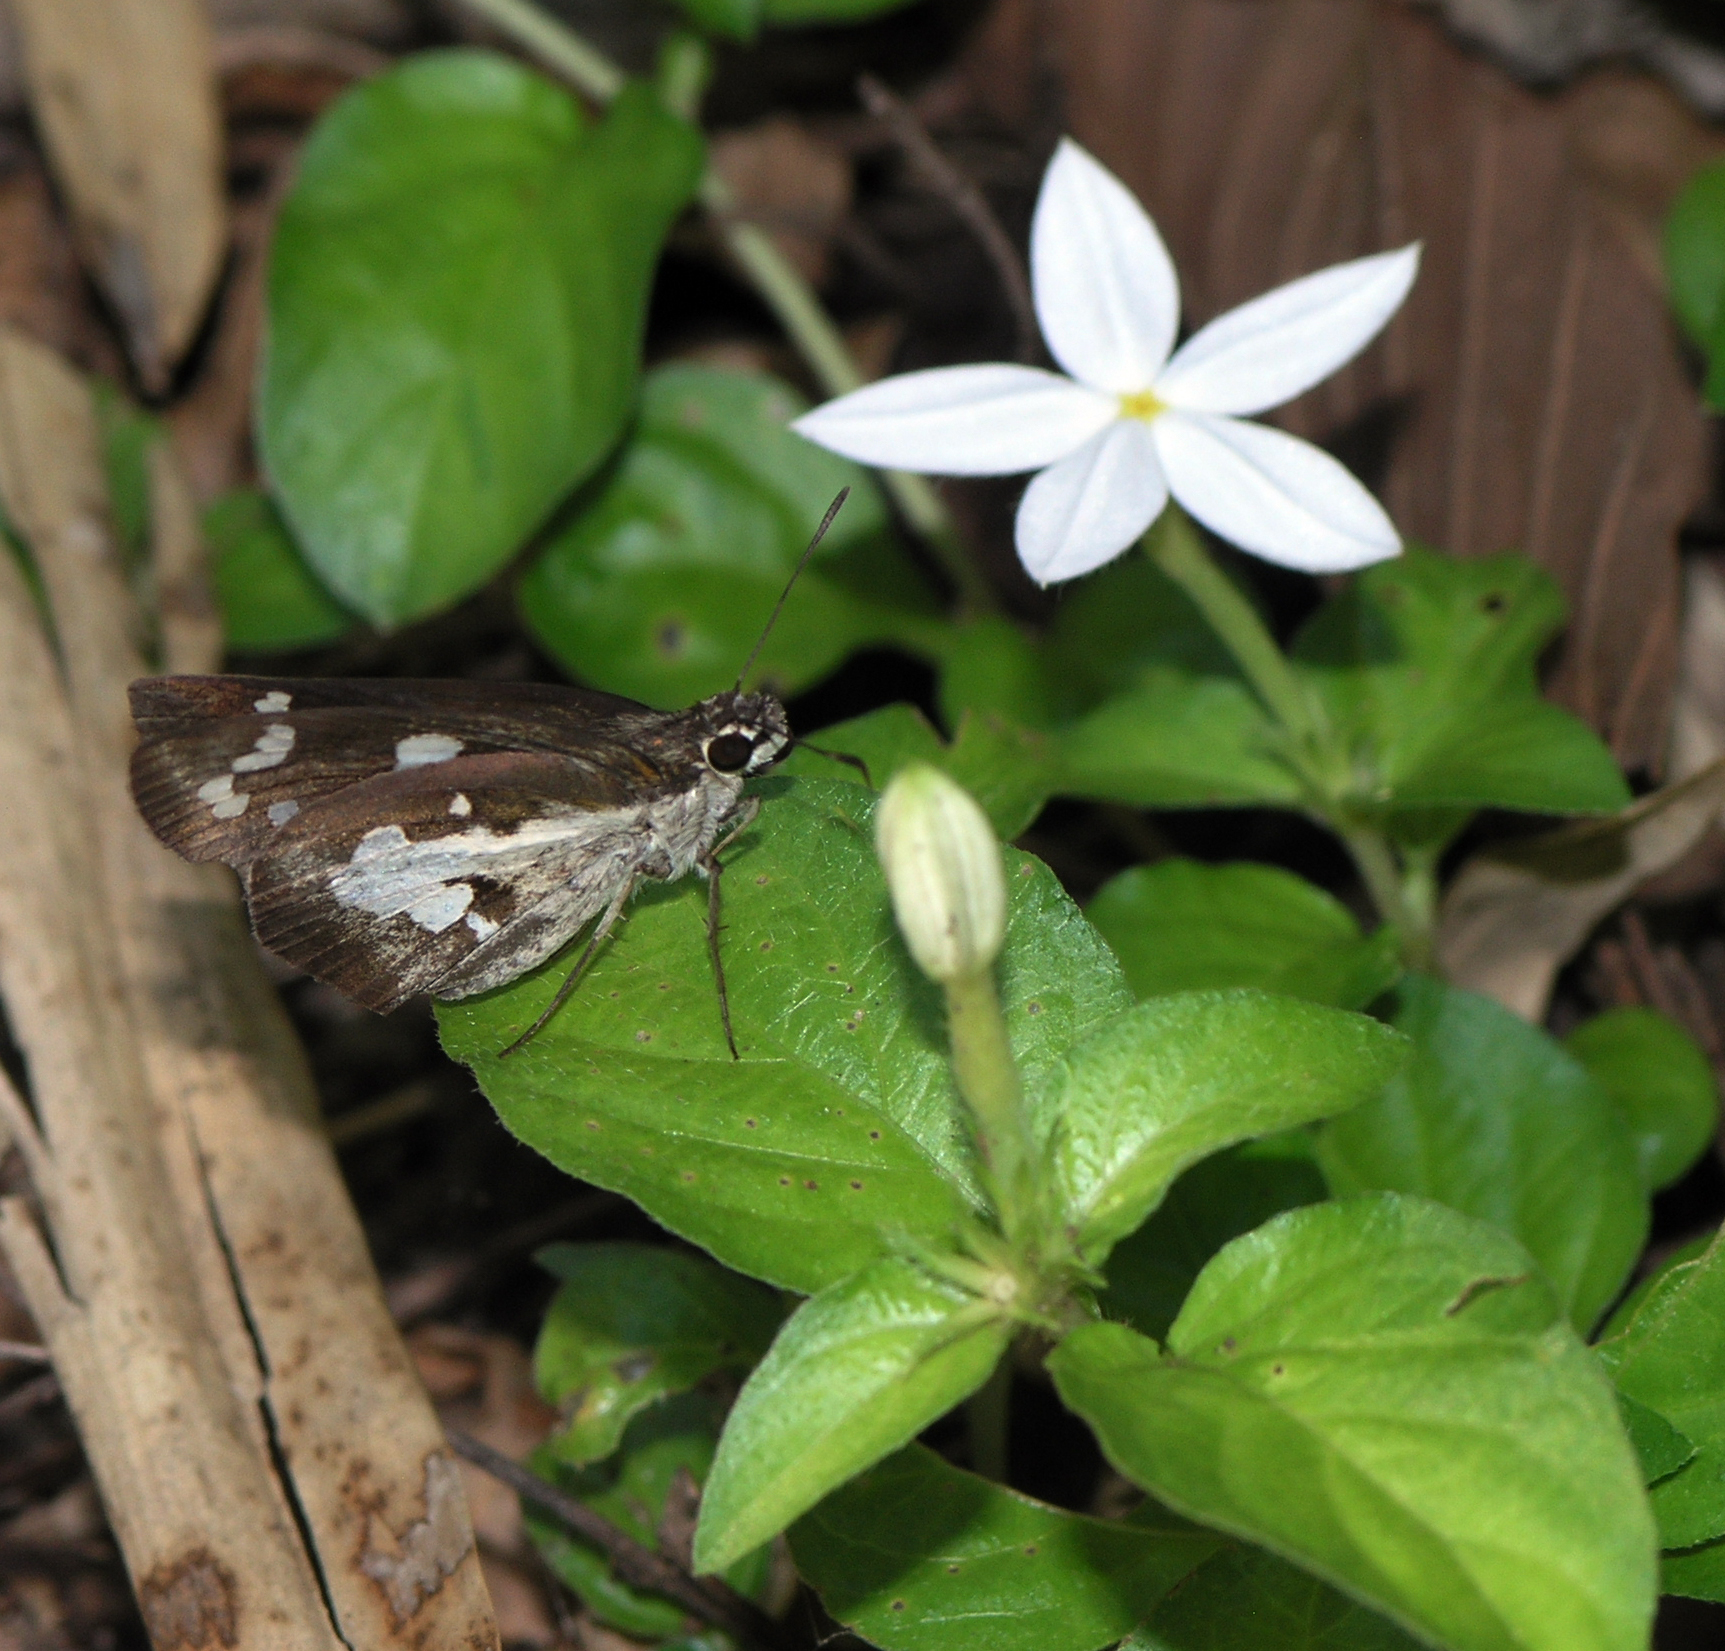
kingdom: Animalia
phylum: Arthropoda
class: Insecta
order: Lepidoptera
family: Hesperiidae
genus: Udaspes
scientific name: Udaspes folus
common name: Grass demon
